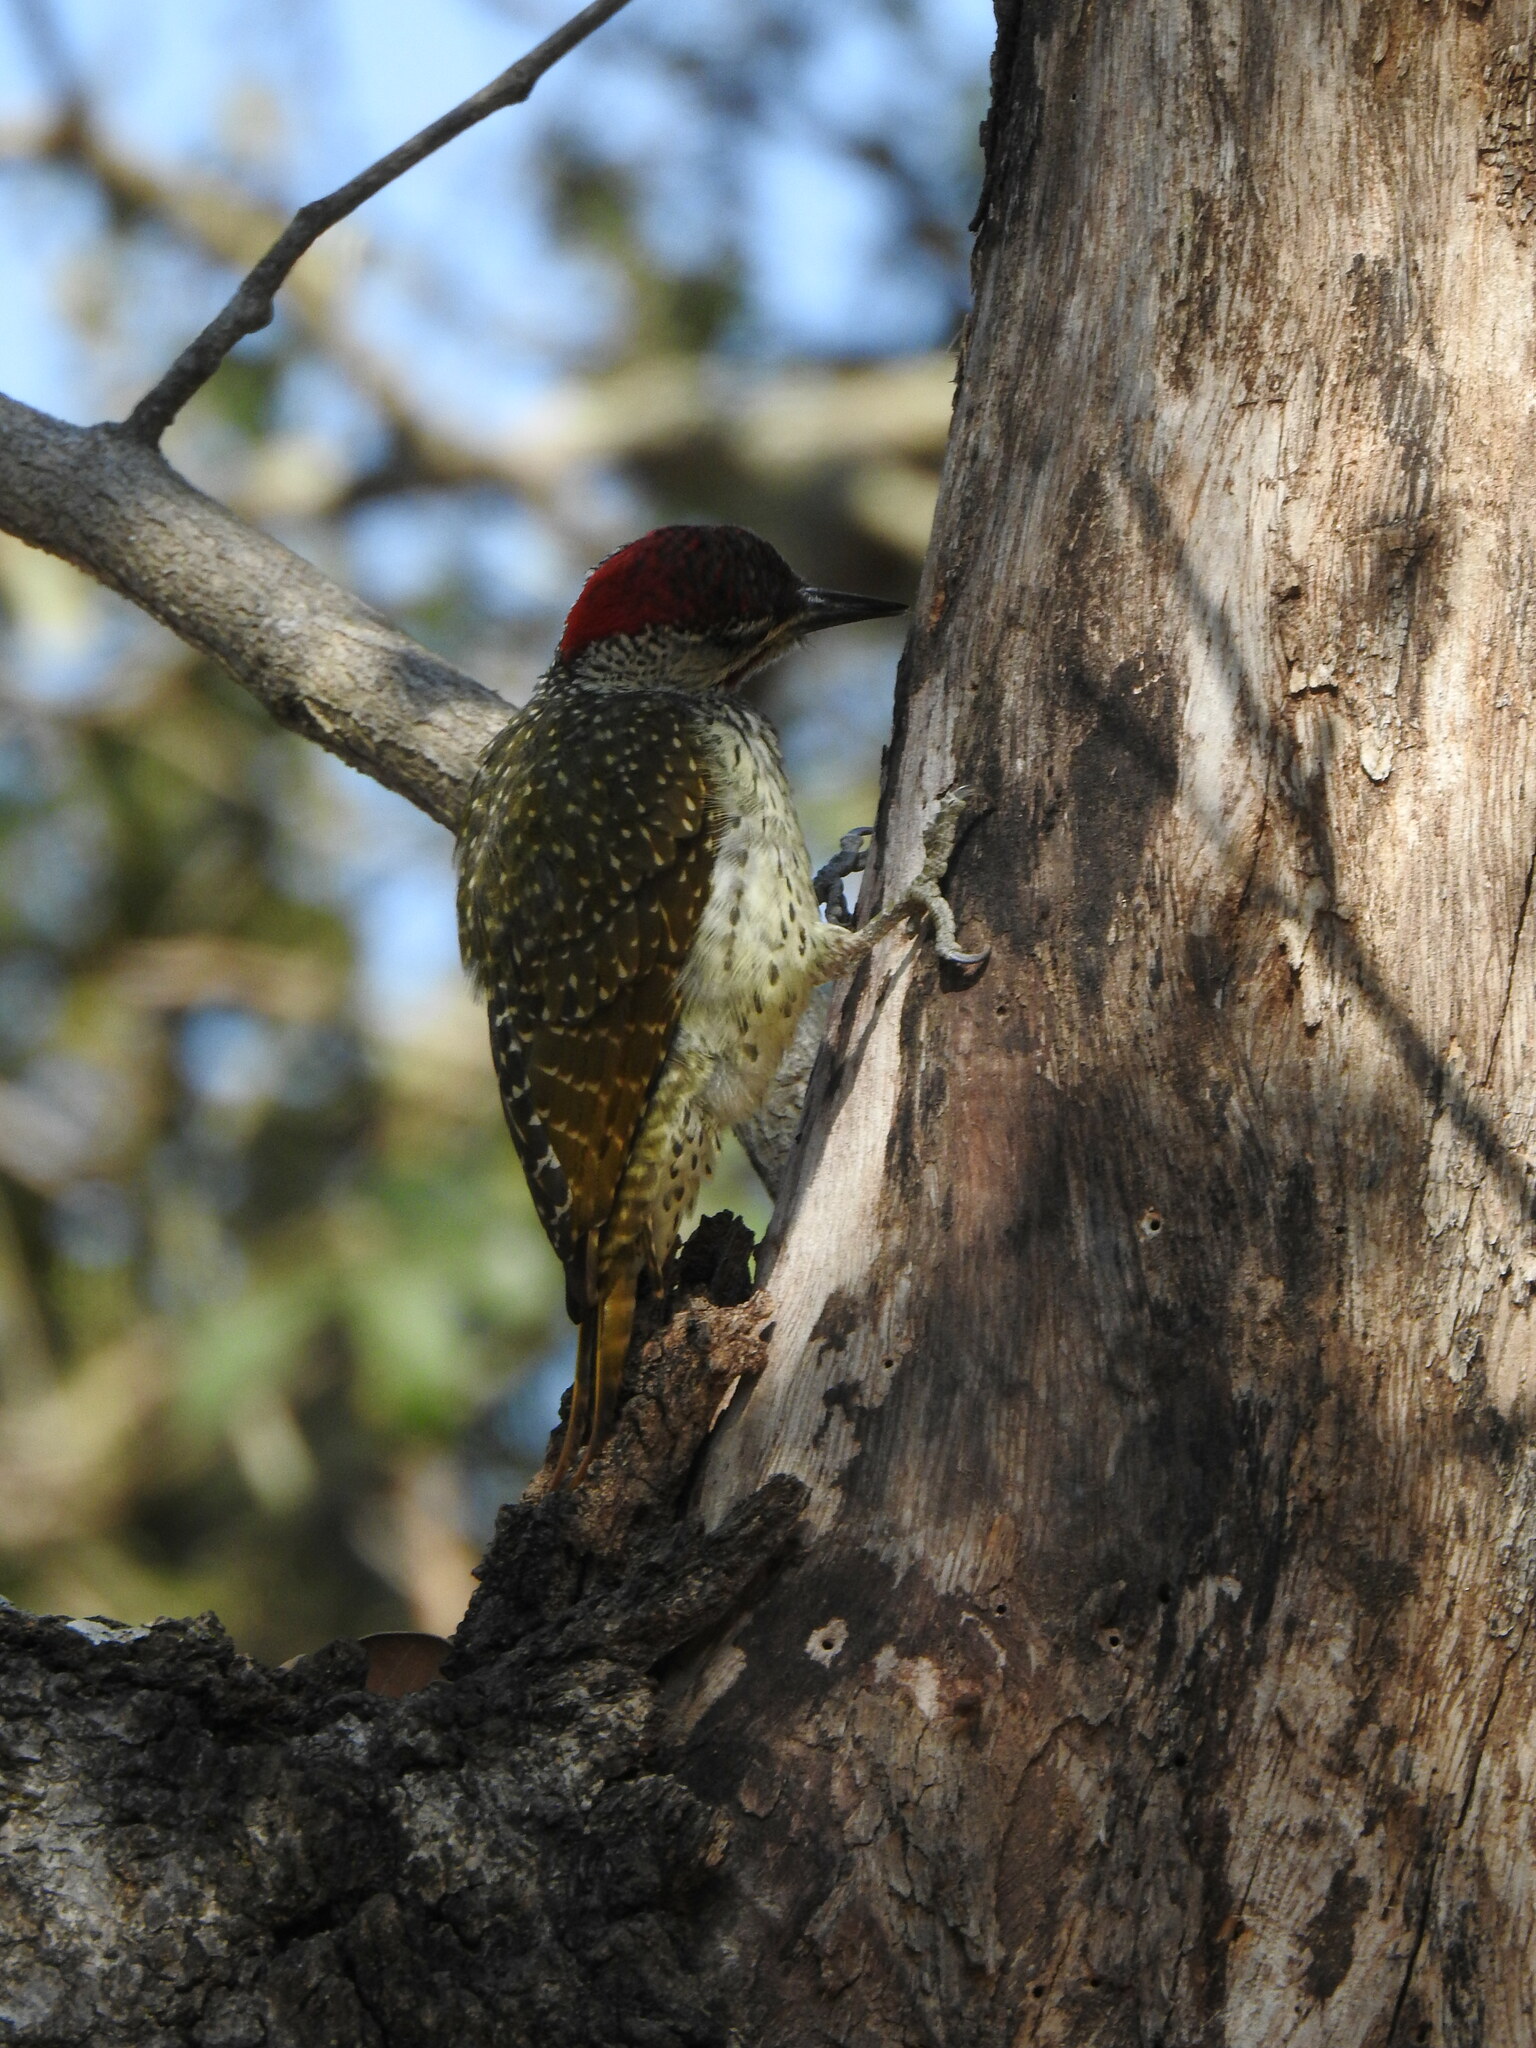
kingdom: Animalia
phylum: Chordata
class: Aves
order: Piciformes
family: Picidae
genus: Campethera
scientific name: Campethera abingoni
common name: Golden-tailed woodpecker
